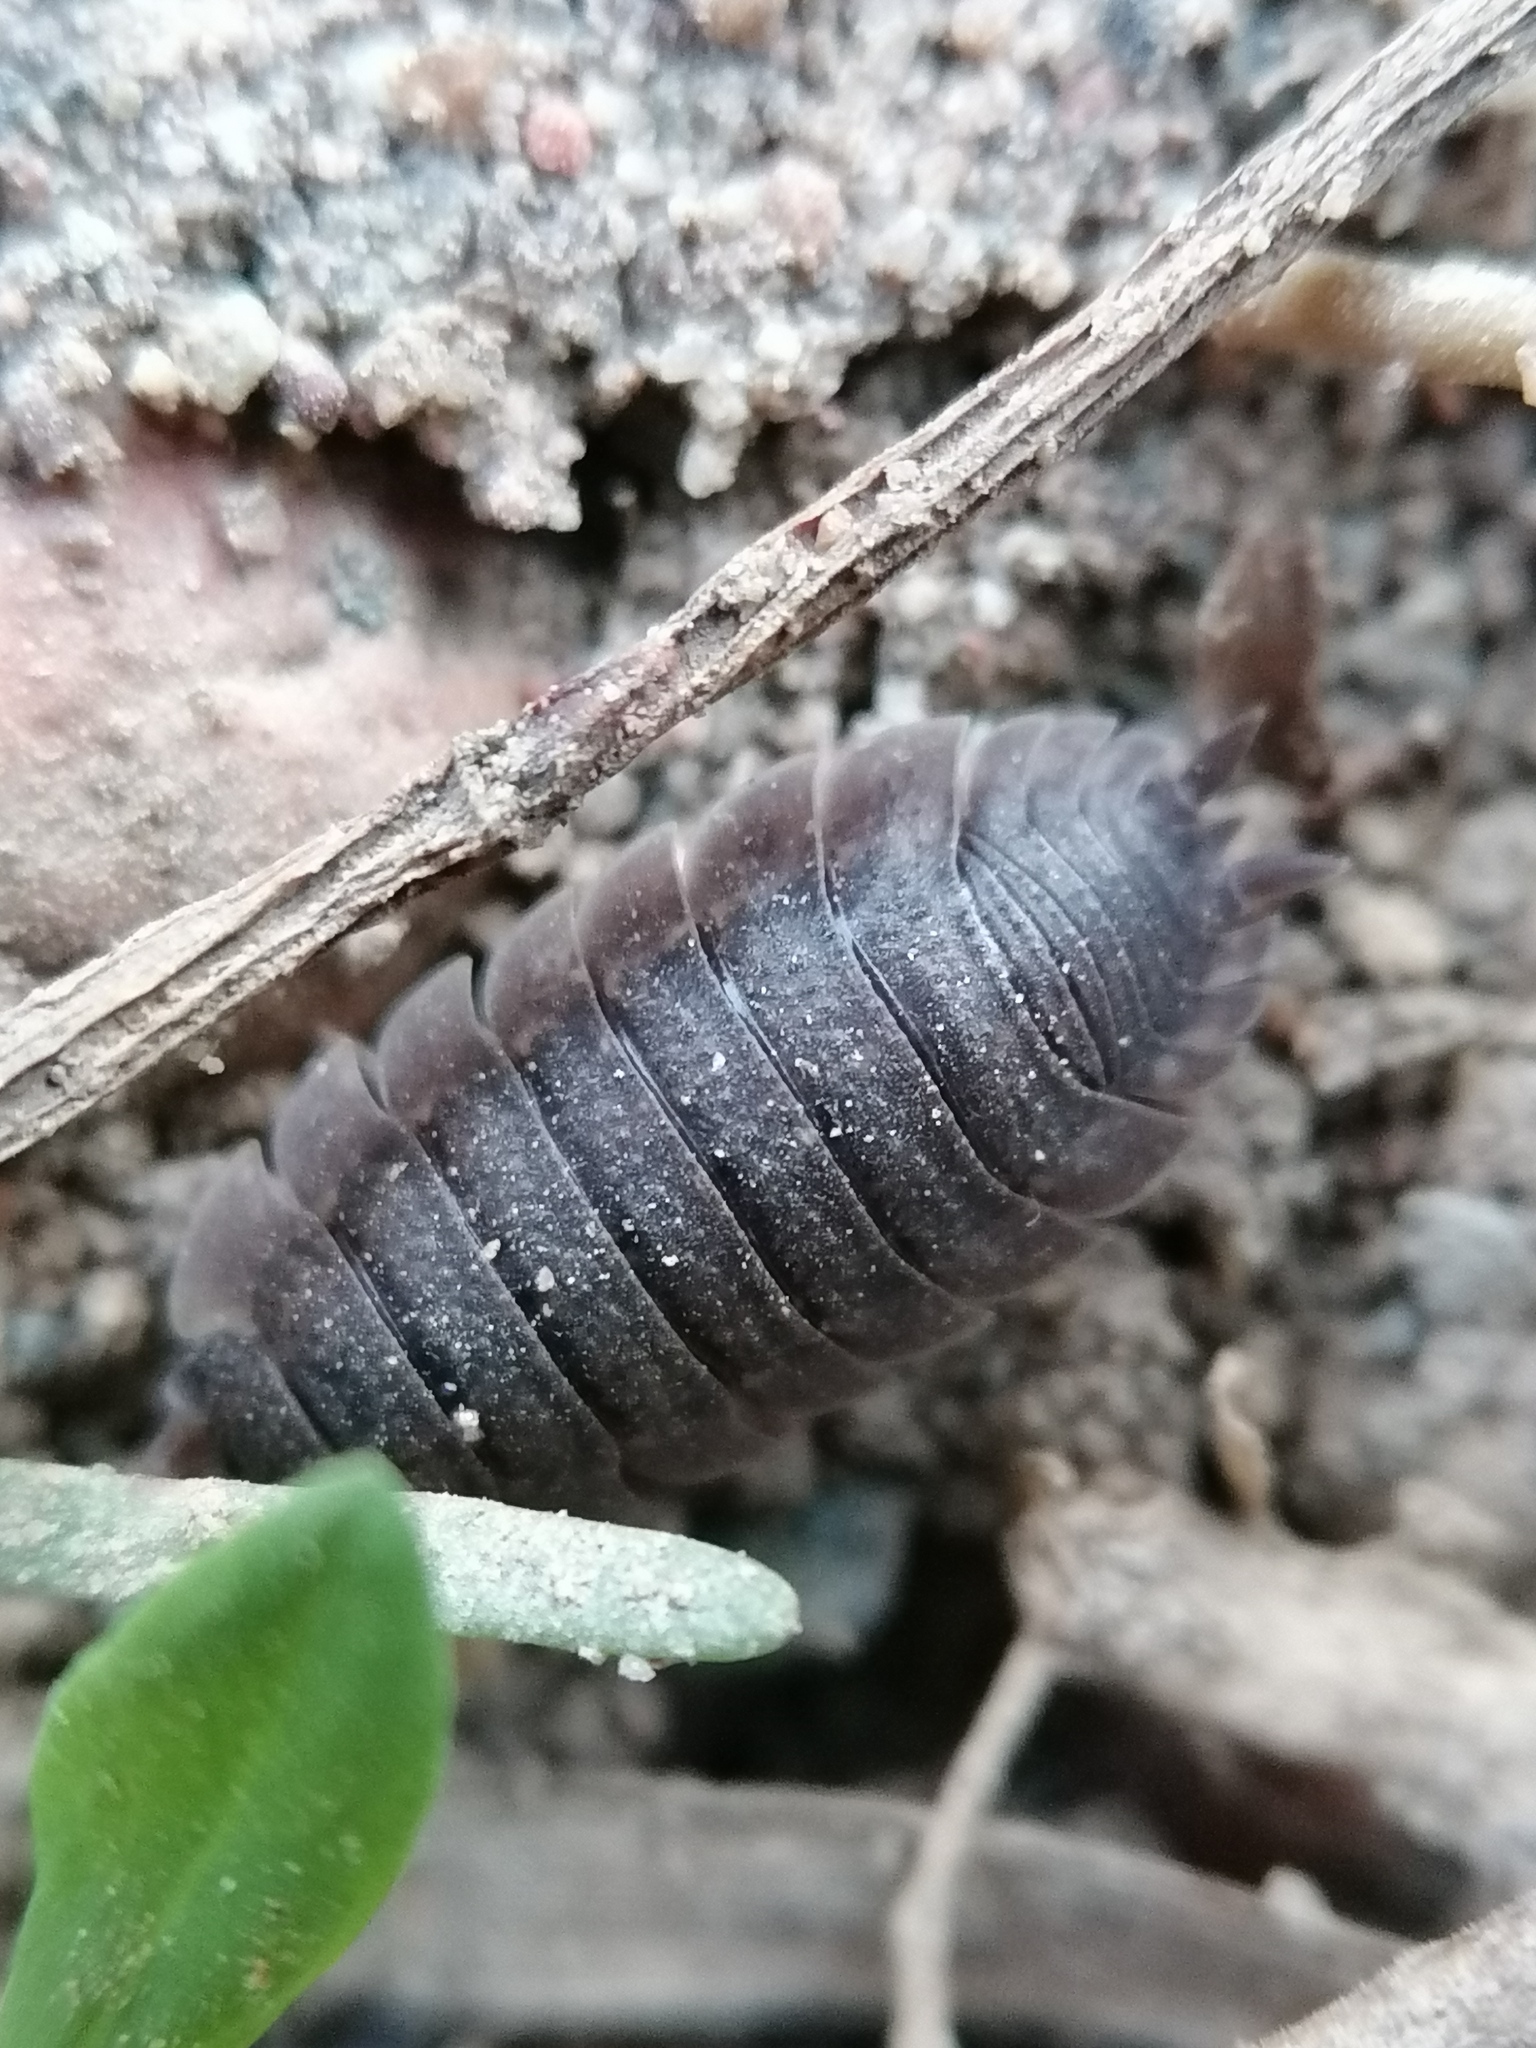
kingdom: Animalia
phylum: Arthropoda
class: Malacostraca
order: Isopoda
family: Porcellionidae
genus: Porcellio
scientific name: Porcellio scaber
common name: Common rough woodlouse
